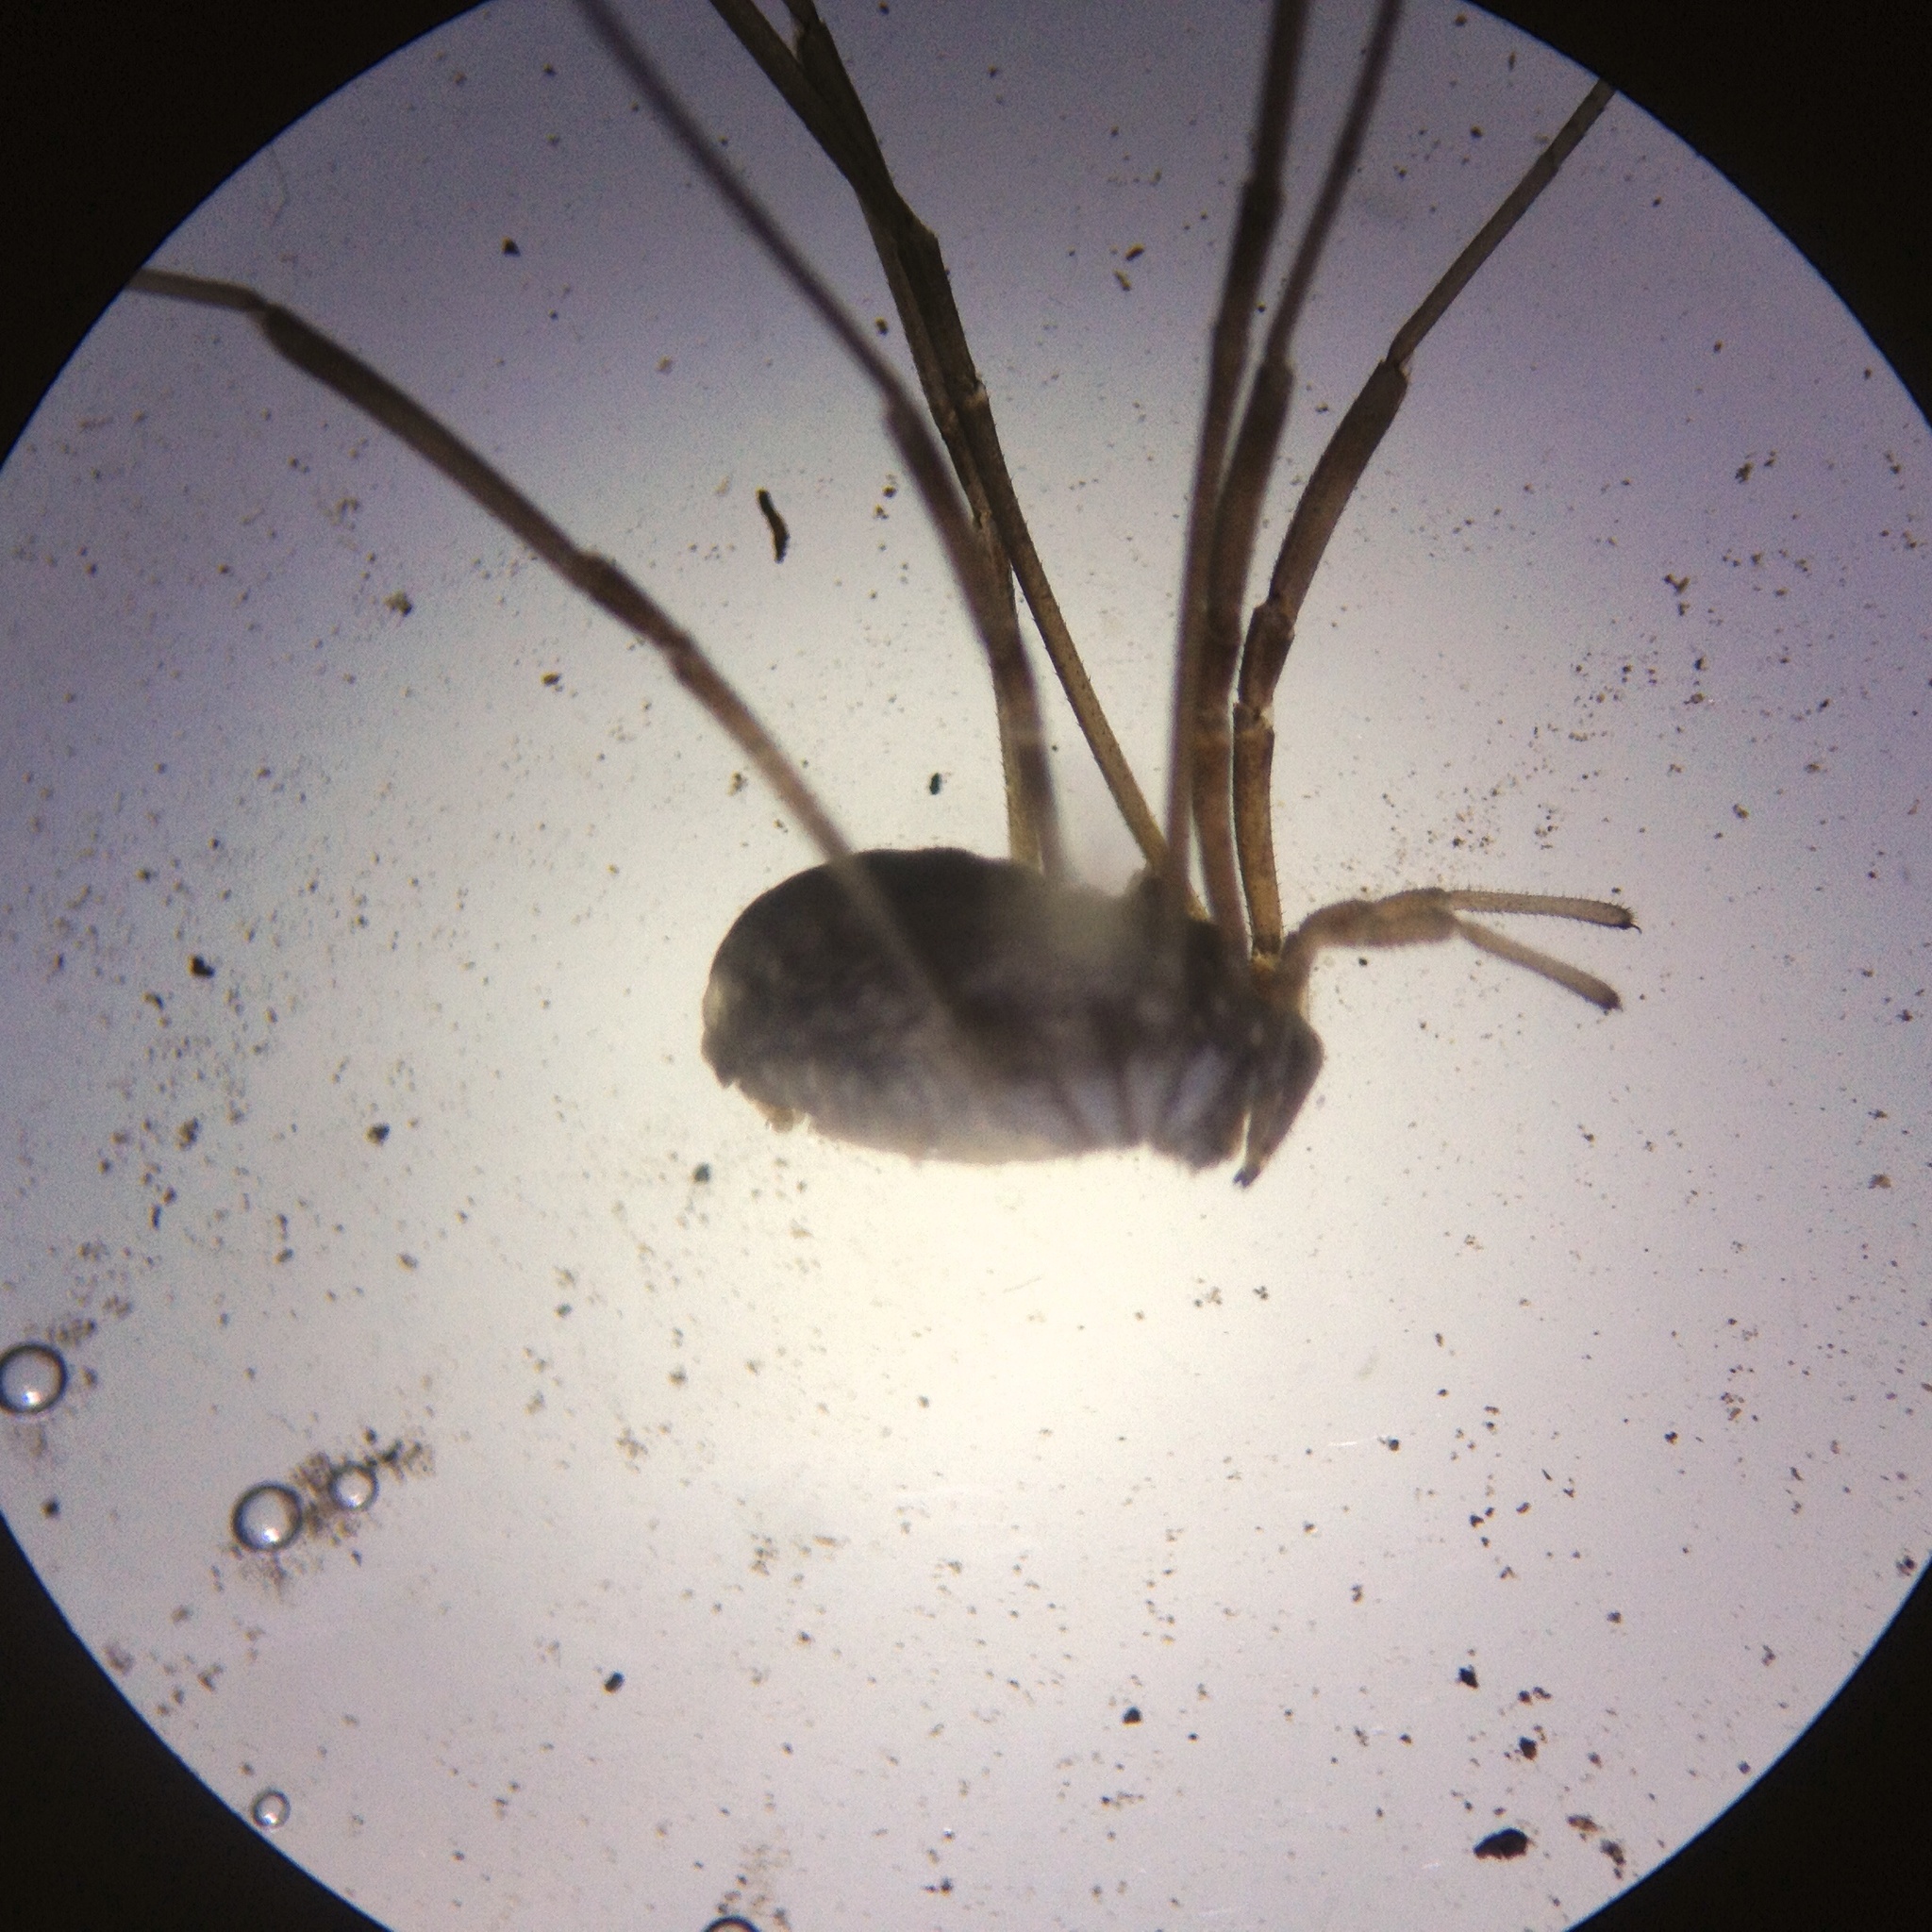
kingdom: Animalia
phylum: Arthropoda
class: Arachnida
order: Opiliones
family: Phalangiidae
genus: Phalangium
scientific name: Phalangium opilio
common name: Daddy longleg
